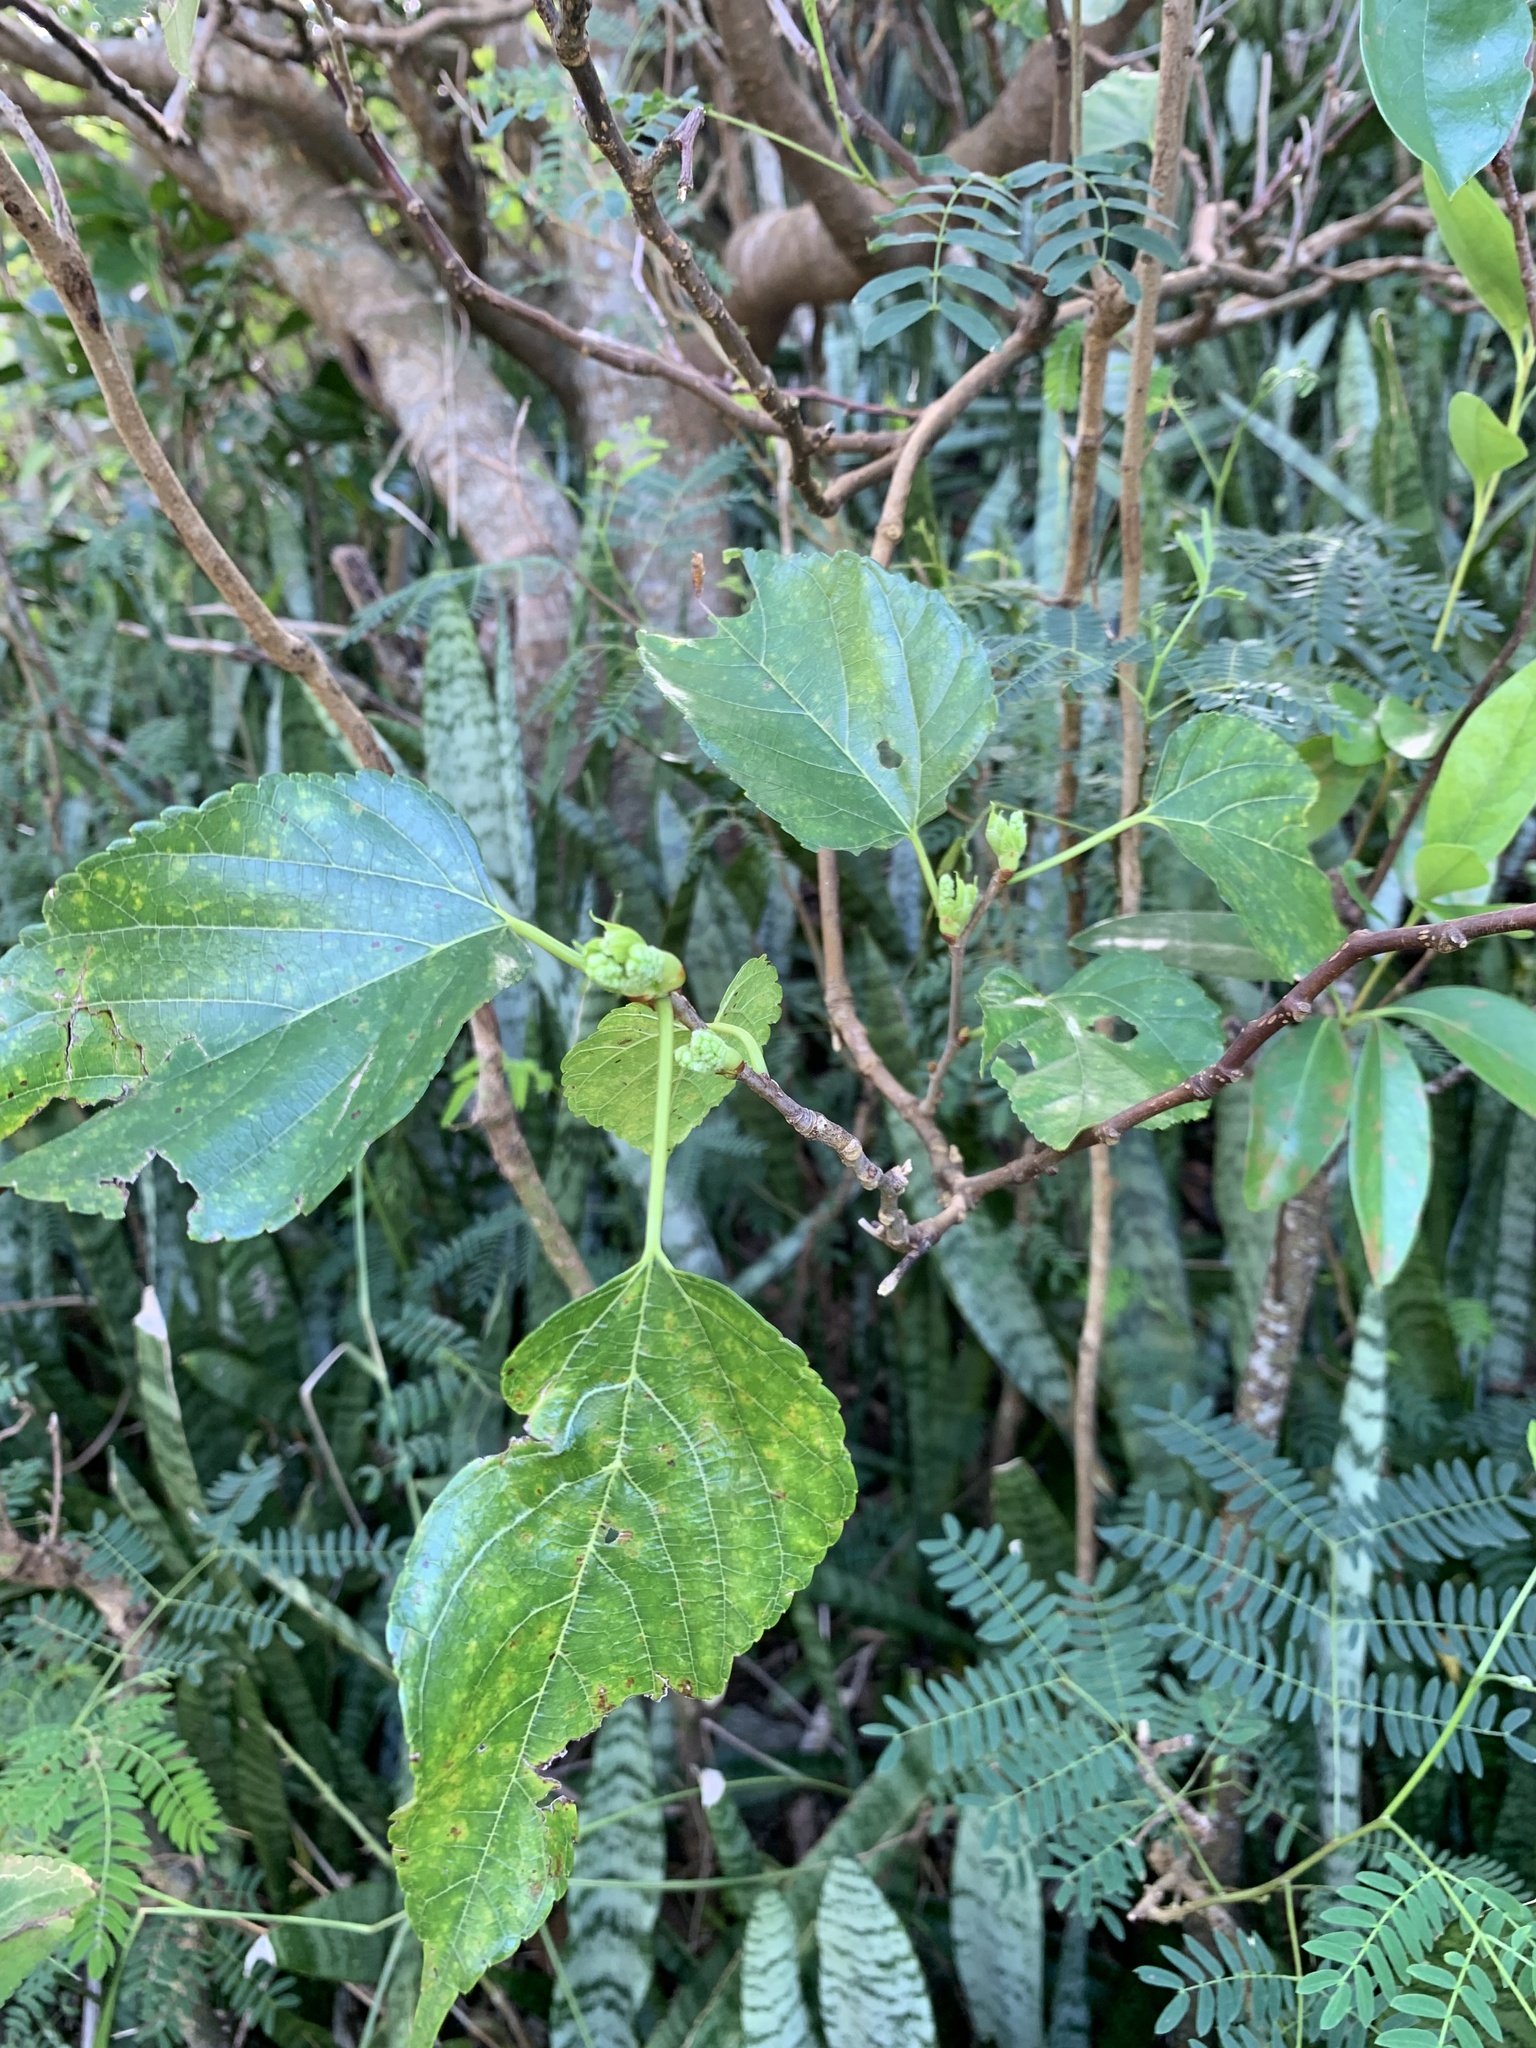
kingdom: Plantae
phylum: Tracheophyta
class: Magnoliopsida
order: Rosales
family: Moraceae
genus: Morus
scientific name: Morus indica
